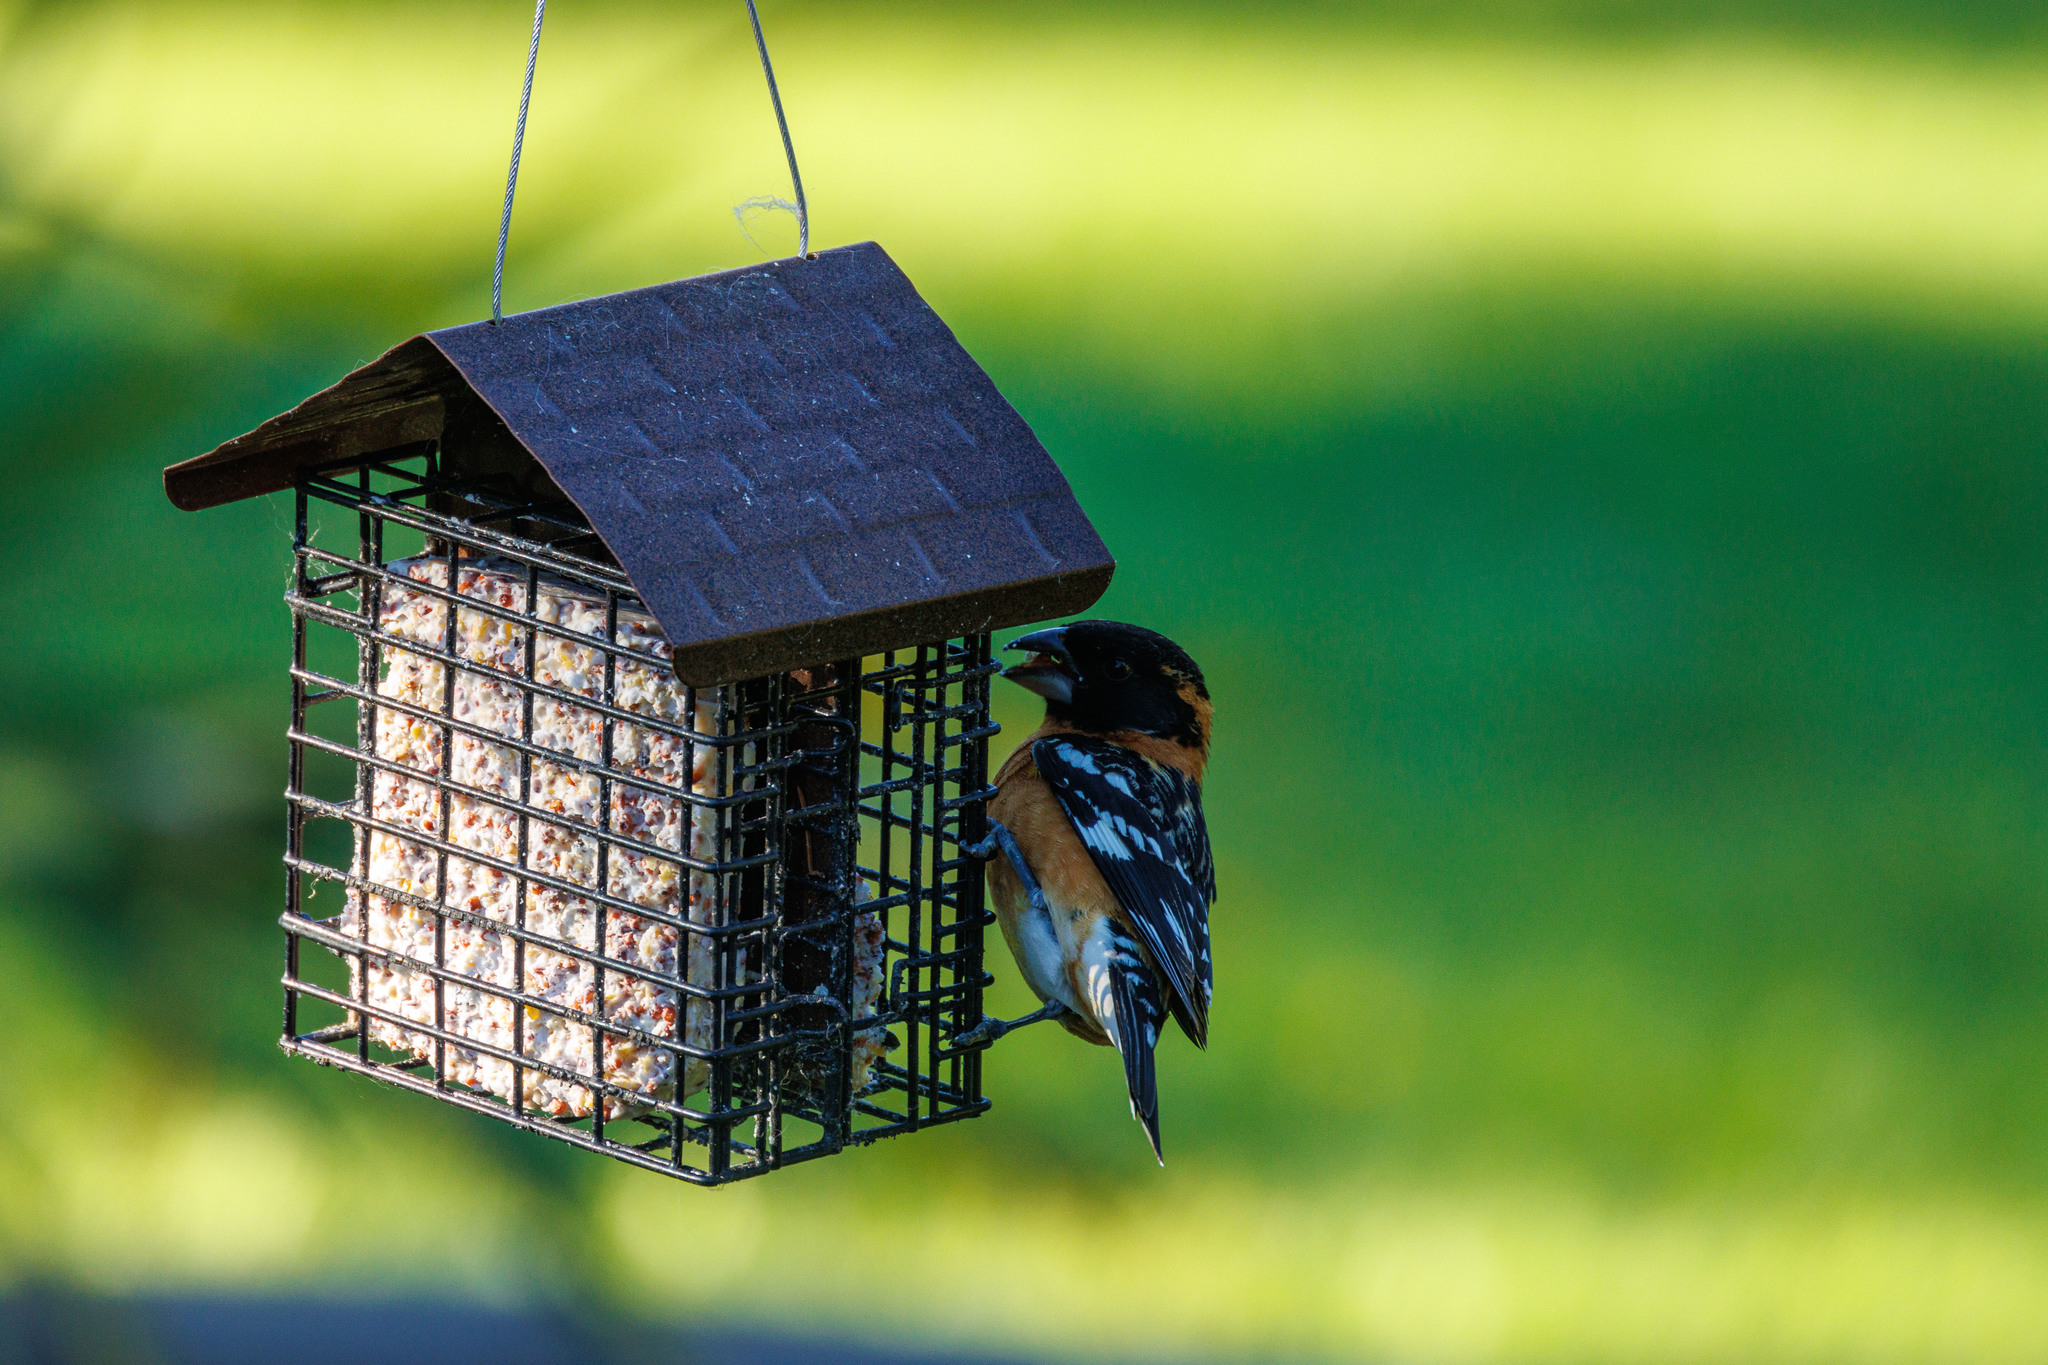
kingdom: Animalia
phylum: Chordata
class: Aves
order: Passeriformes
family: Cardinalidae
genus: Pheucticus
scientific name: Pheucticus melanocephalus
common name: Black-headed grosbeak
